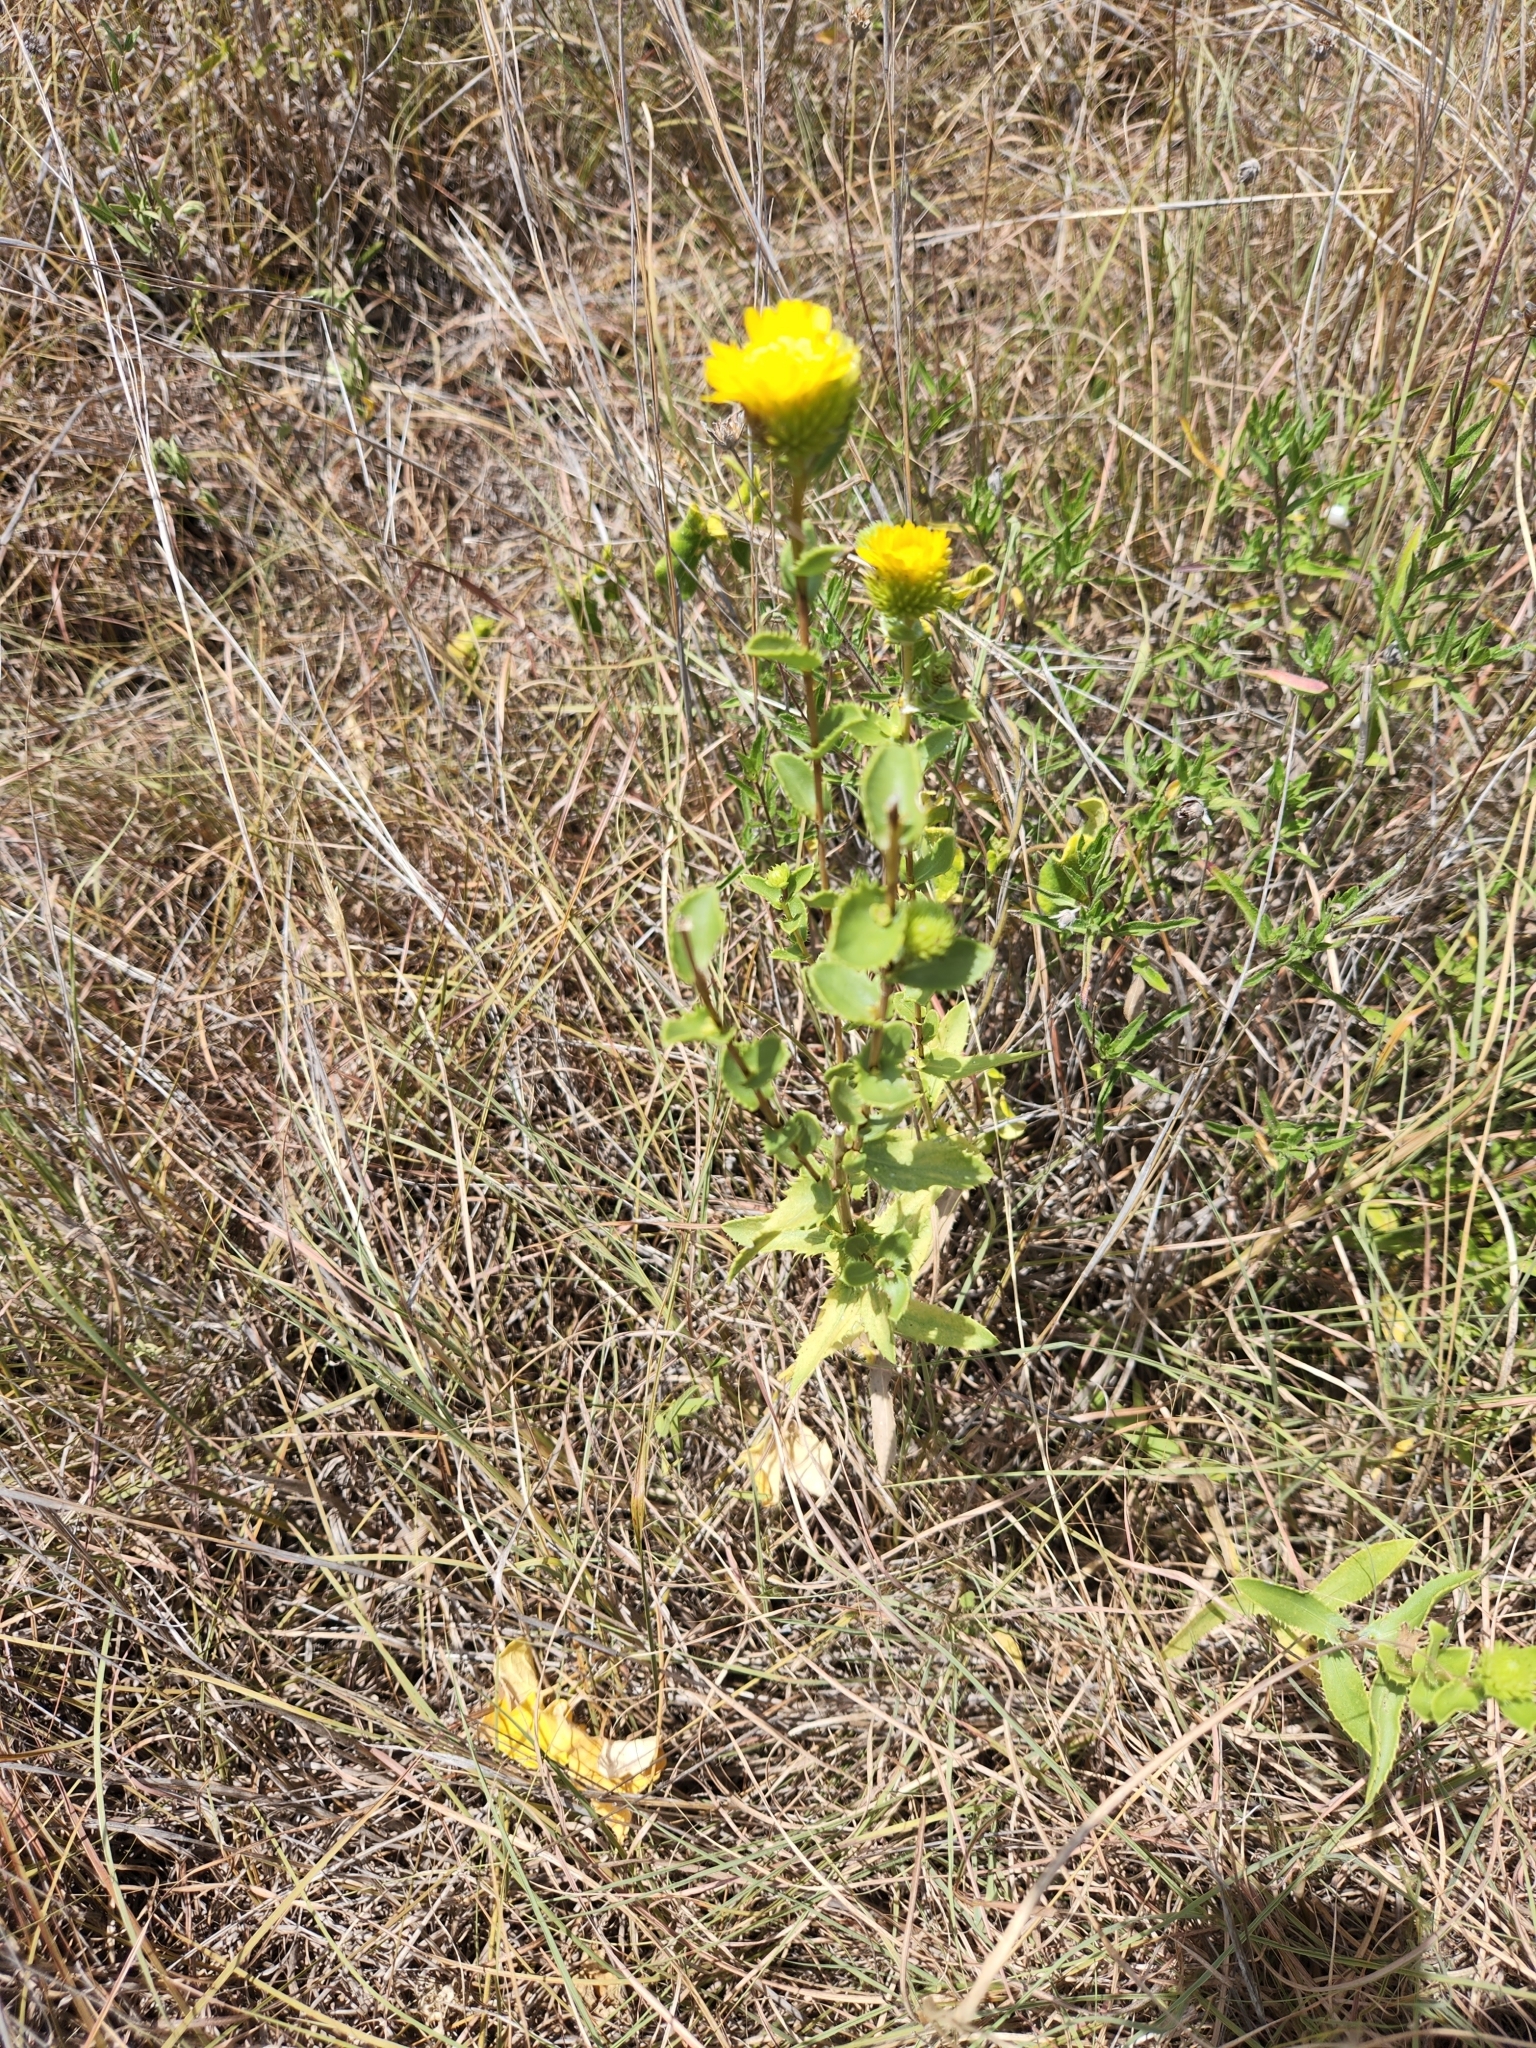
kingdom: Plantae
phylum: Tracheophyta
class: Magnoliopsida
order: Asterales
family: Asteraceae
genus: Grindelia
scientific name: Grindelia lanceolata
